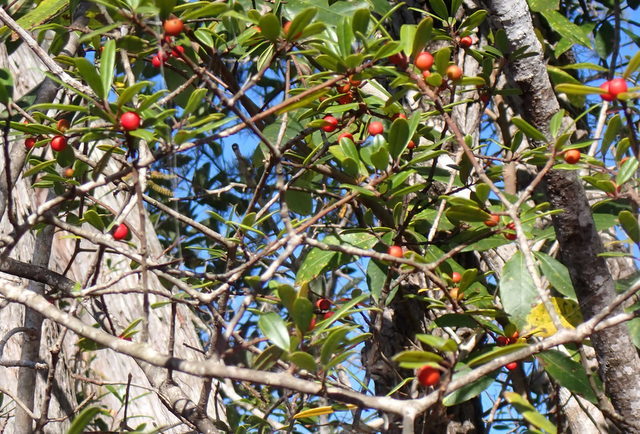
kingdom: Plantae
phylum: Tracheophyta
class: Magnoliopsida
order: Aquifoliales
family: Aquifoliaceae
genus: Ilex
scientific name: Ilex cassine
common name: Dahoon
